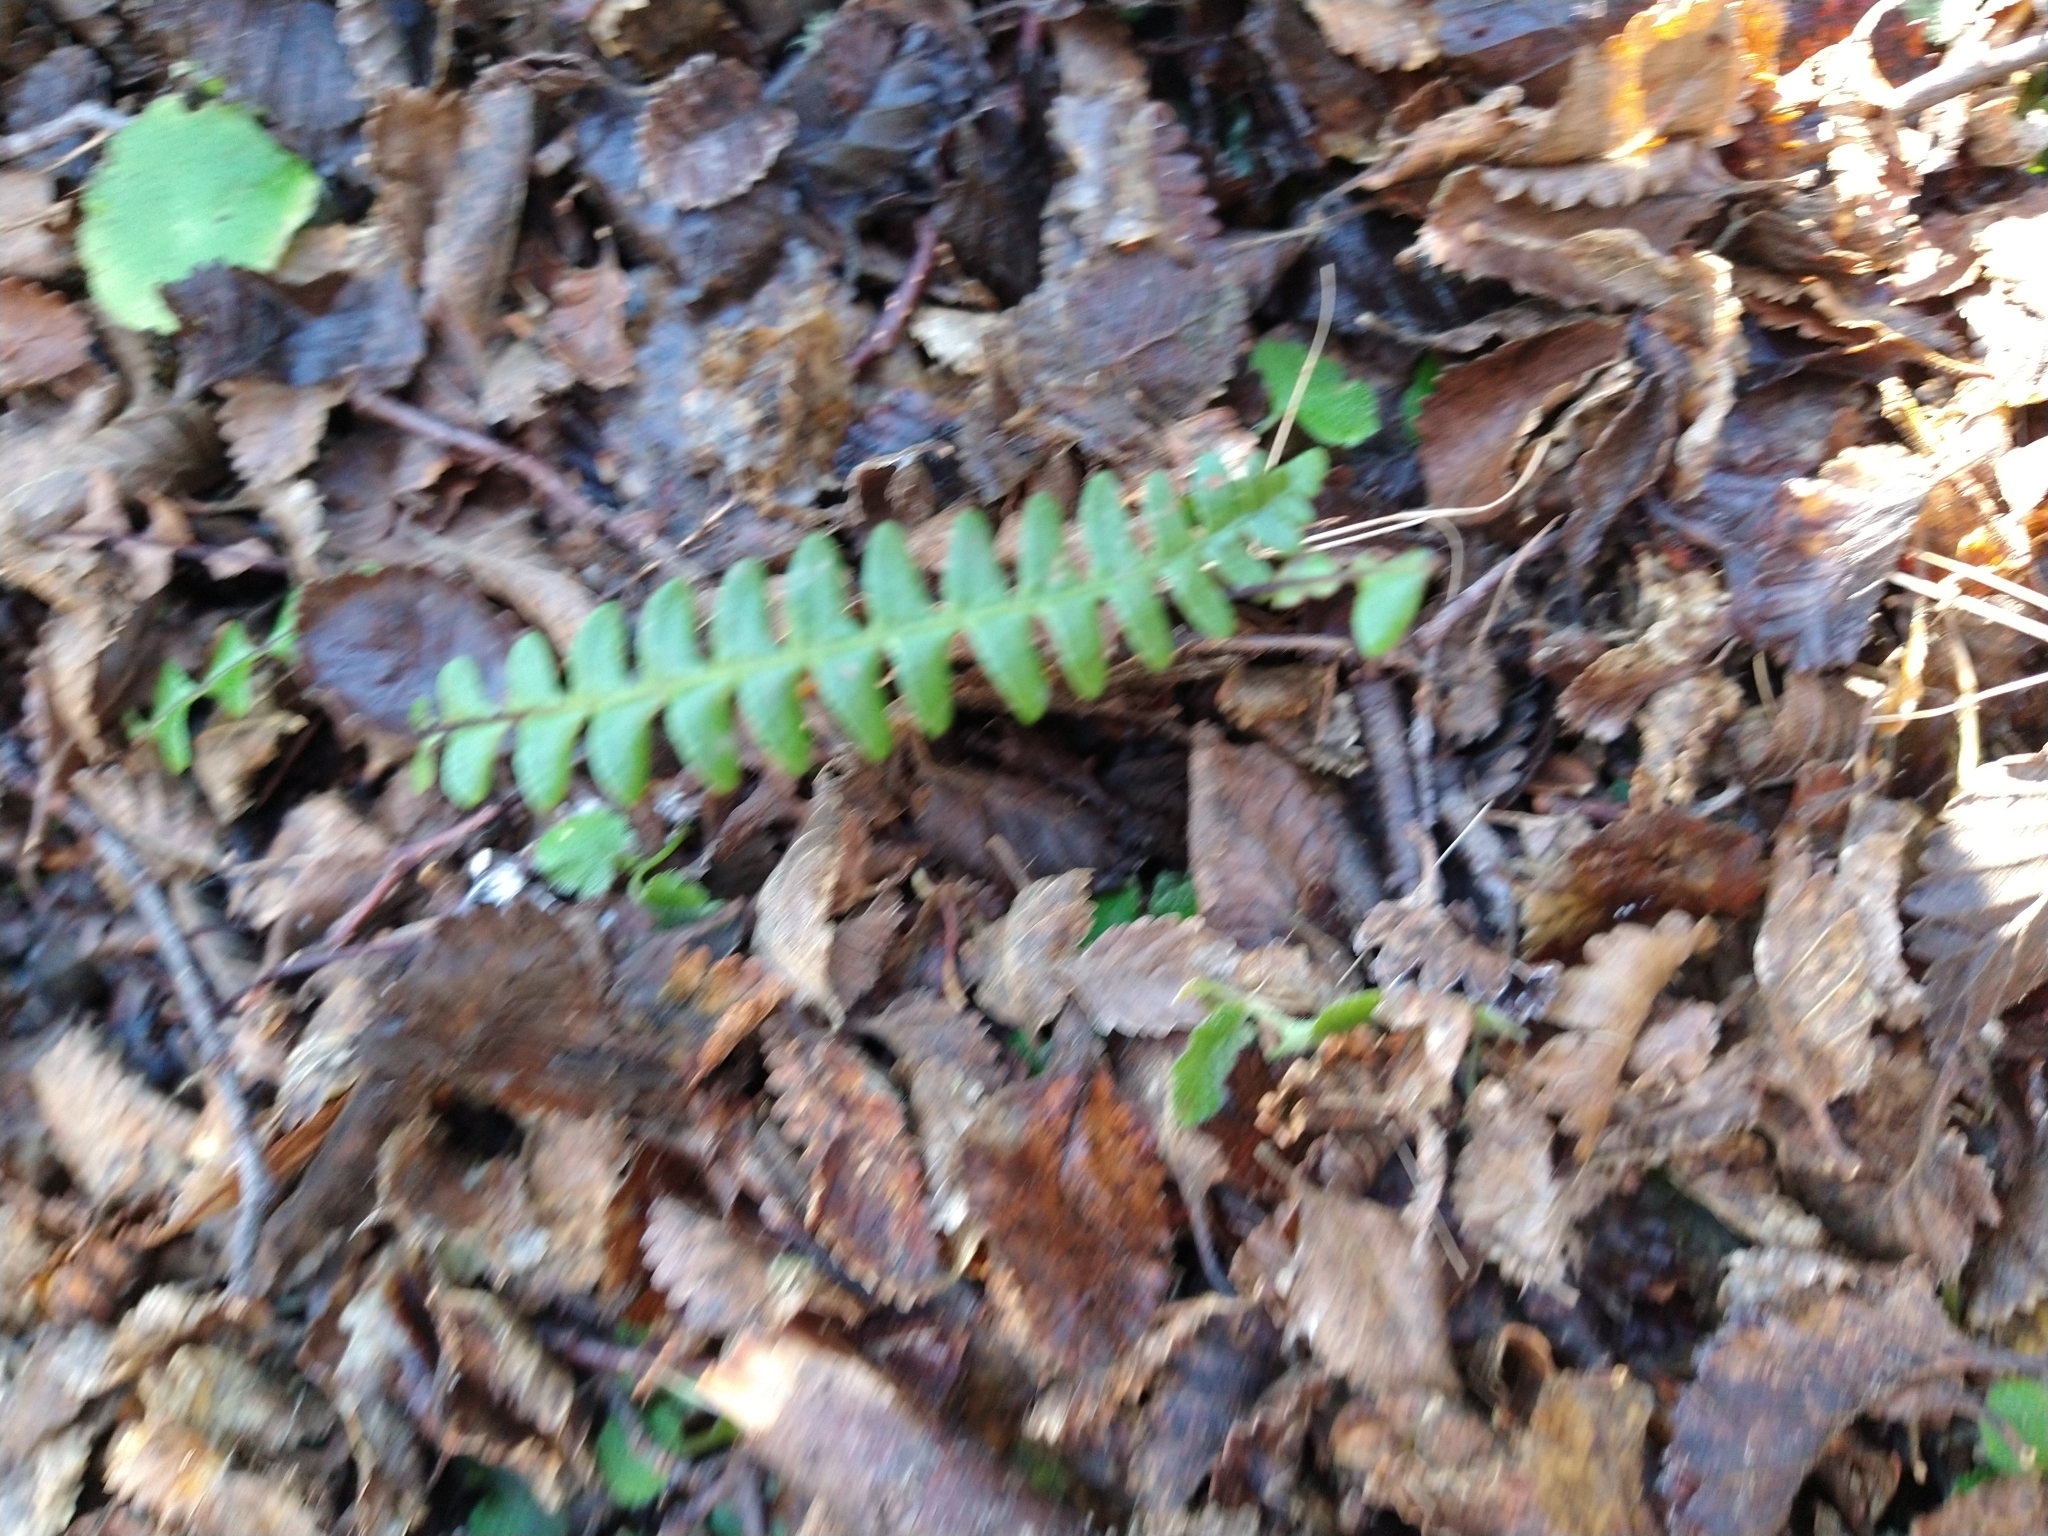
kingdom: Plantae
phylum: Tracheophyta
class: Polypodiopsida
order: Polypodiales
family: Blechnaceae
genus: Austroblechnum
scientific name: Austroblechnum penna-marina
